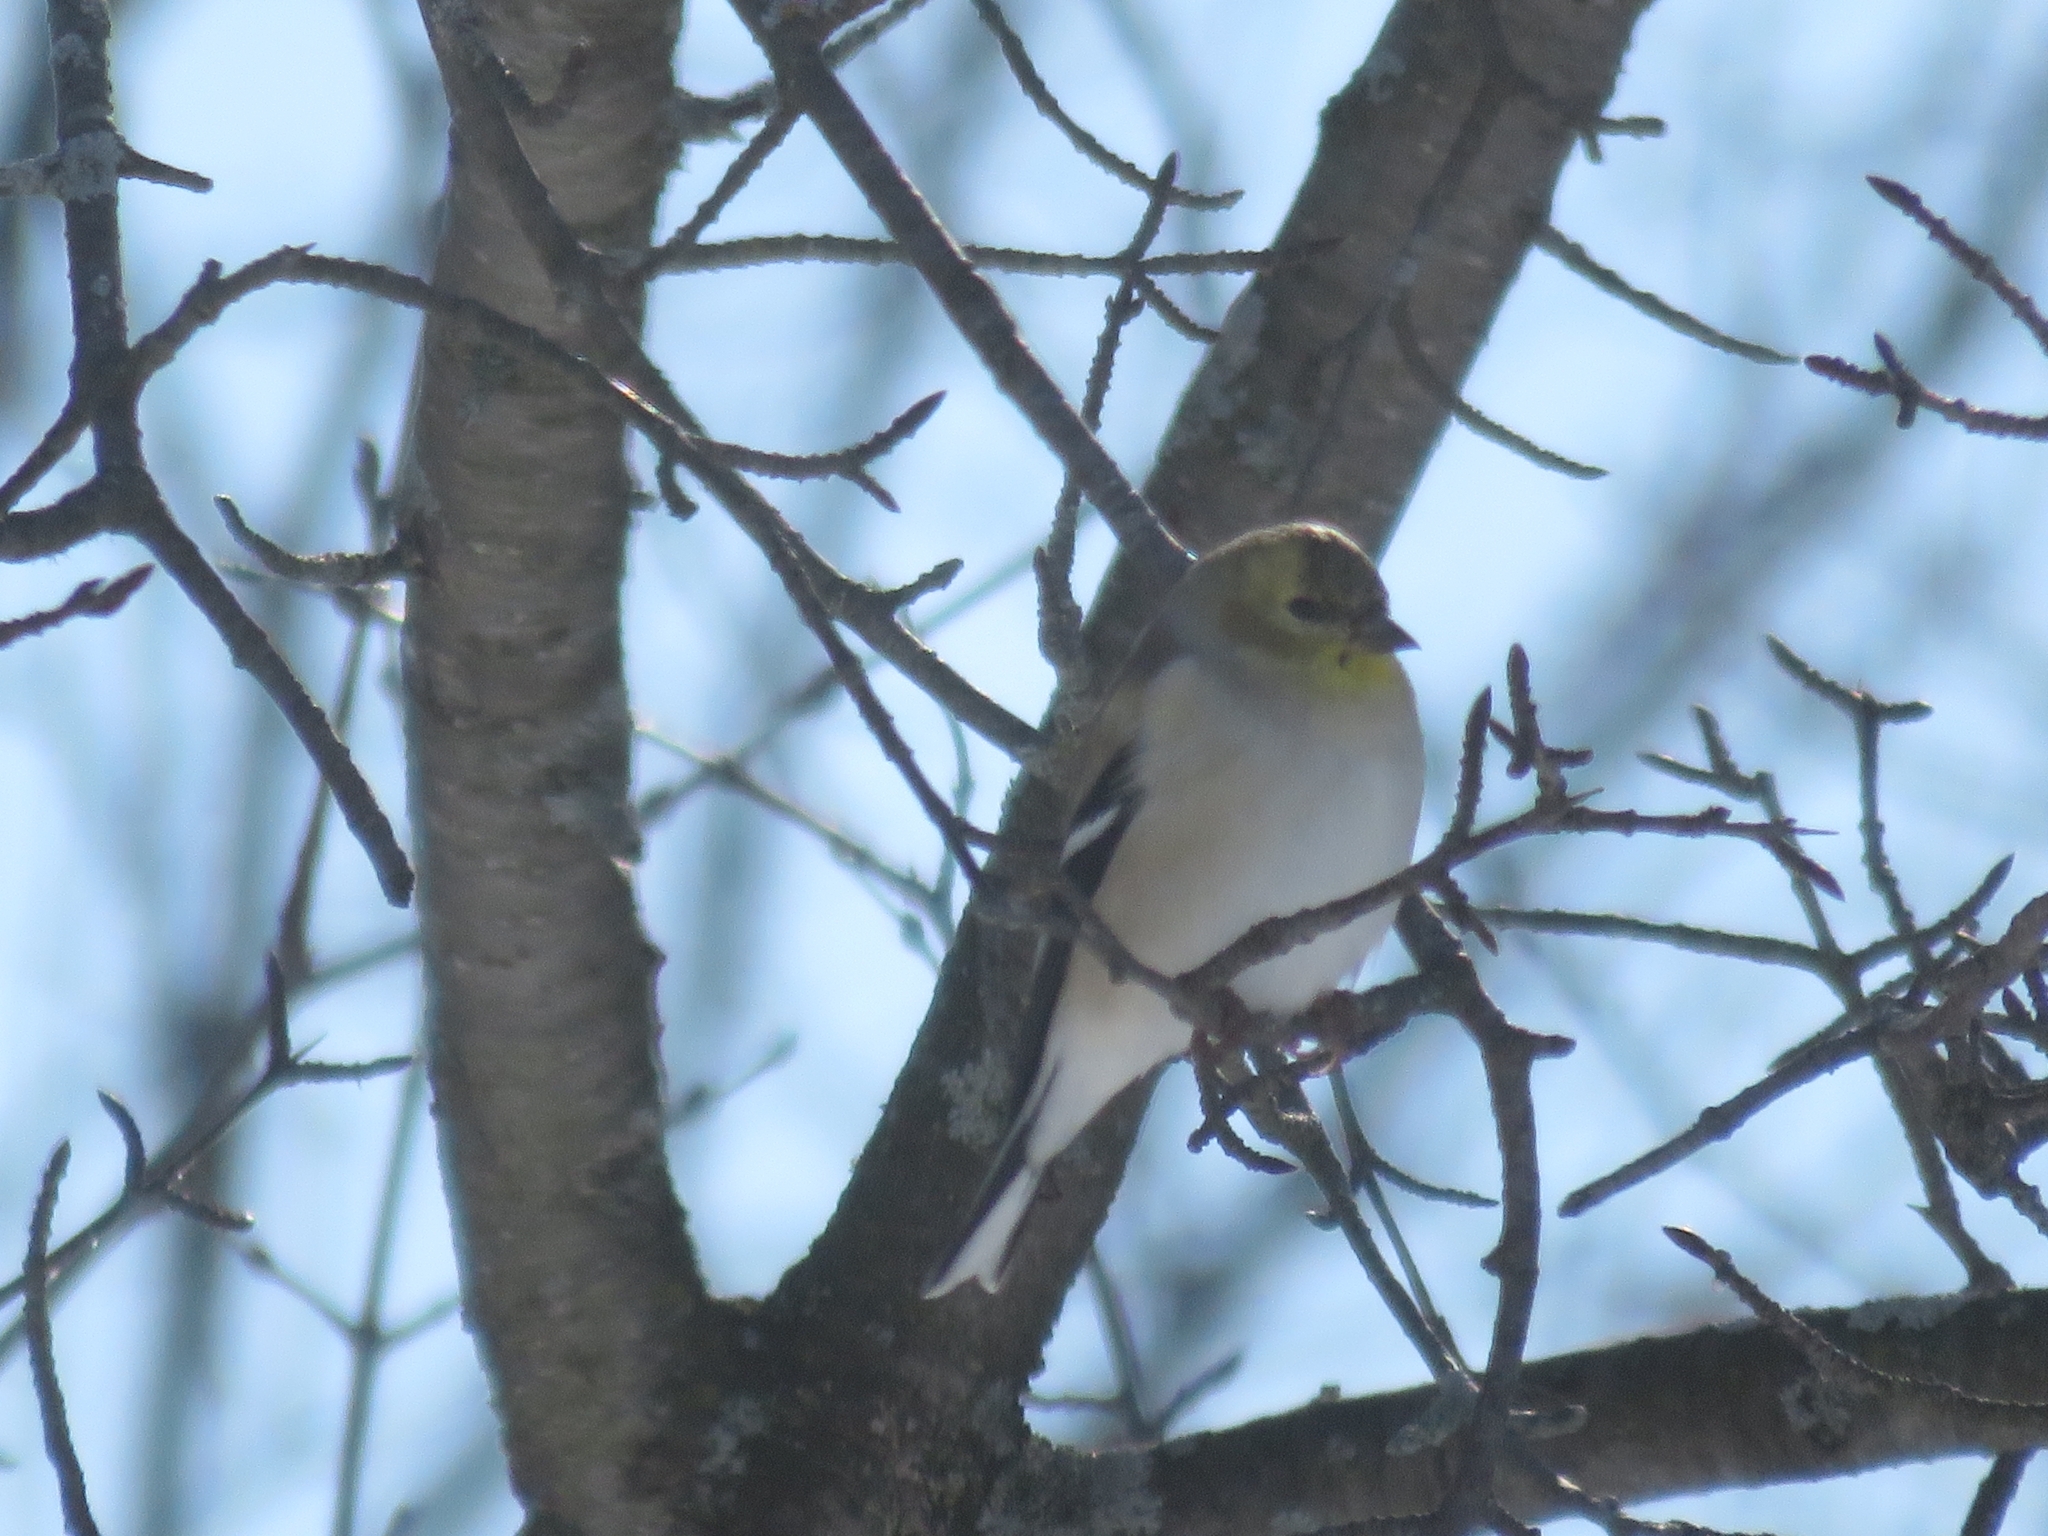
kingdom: Animalia
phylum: Chordata
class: Aves
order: Passeriformes
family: Fringillidae
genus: Spinus
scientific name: Spinus tristis
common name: American goldfinch
